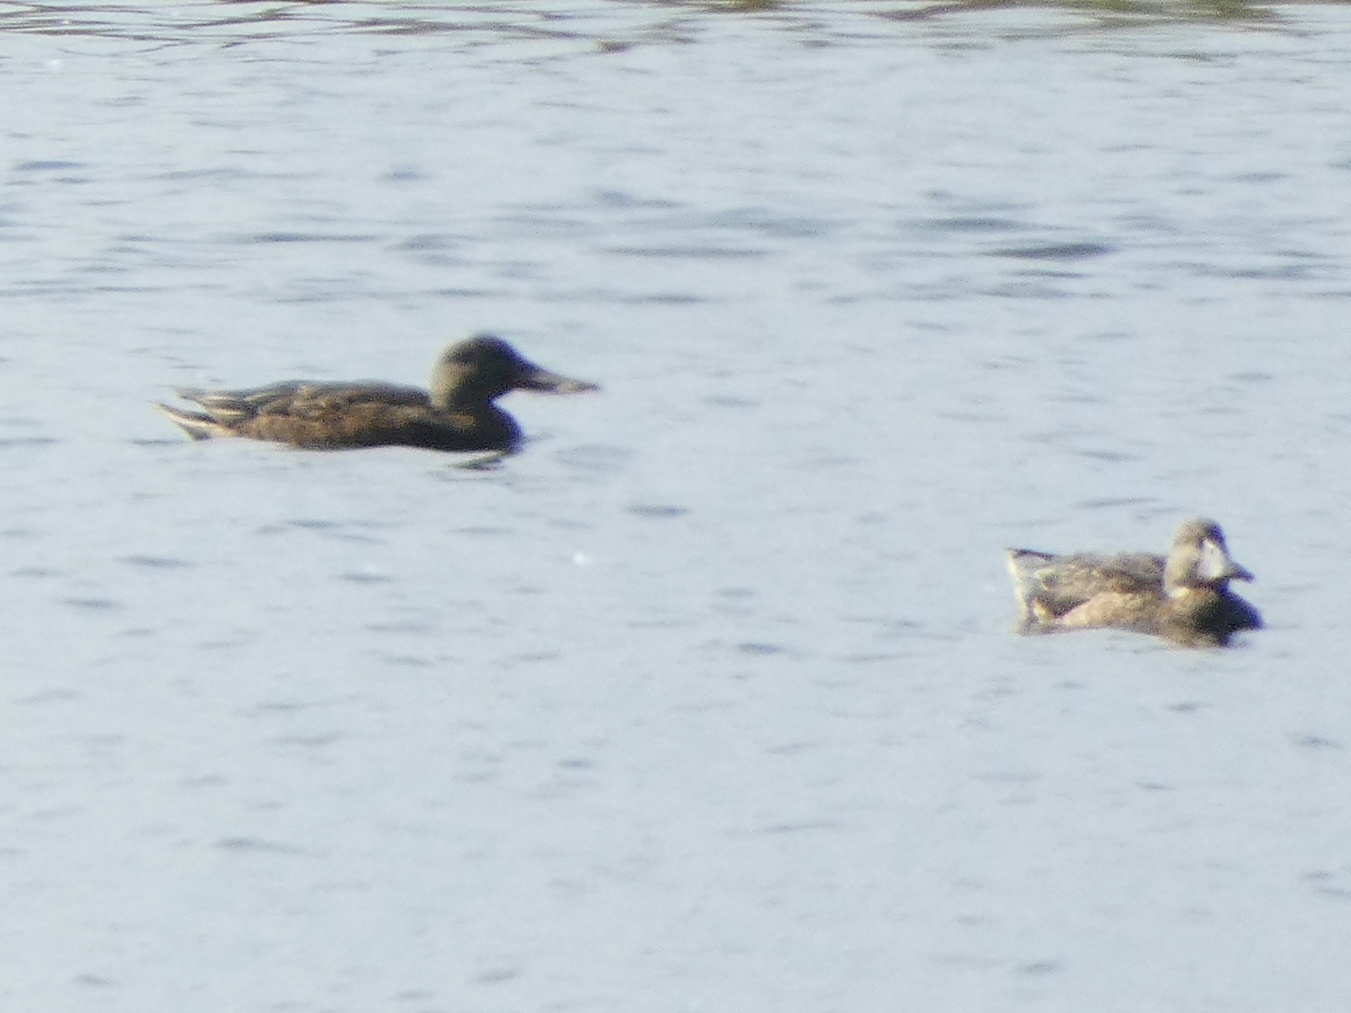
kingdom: Animalia
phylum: Chordata
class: Aves
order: Anseriformes
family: Anatidae
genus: Spatula
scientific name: Spatula clypeata
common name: Northern shoveler
